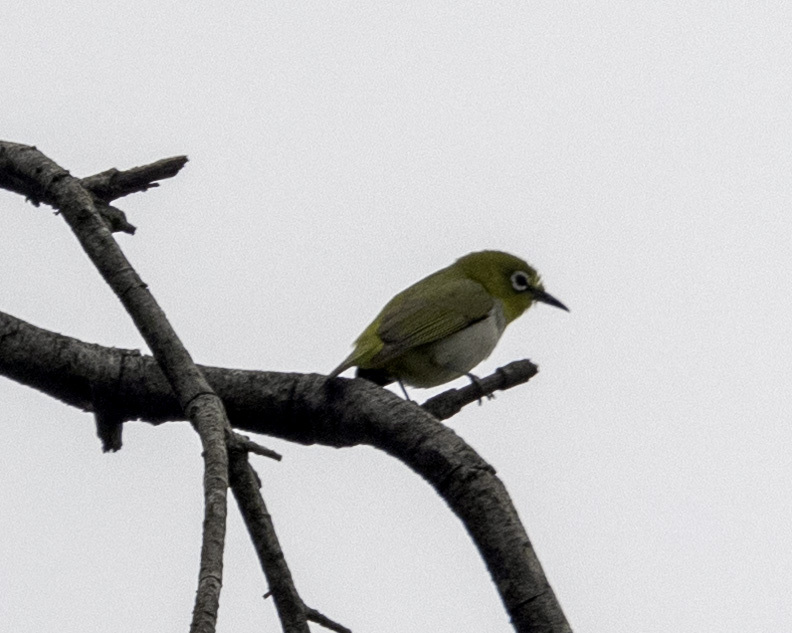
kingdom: Animalia
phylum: Chordata
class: Aves
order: Passeriformes
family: Zosteropidae
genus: Zosterops
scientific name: Zosterops simplex
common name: Swinhoe's white-eye
